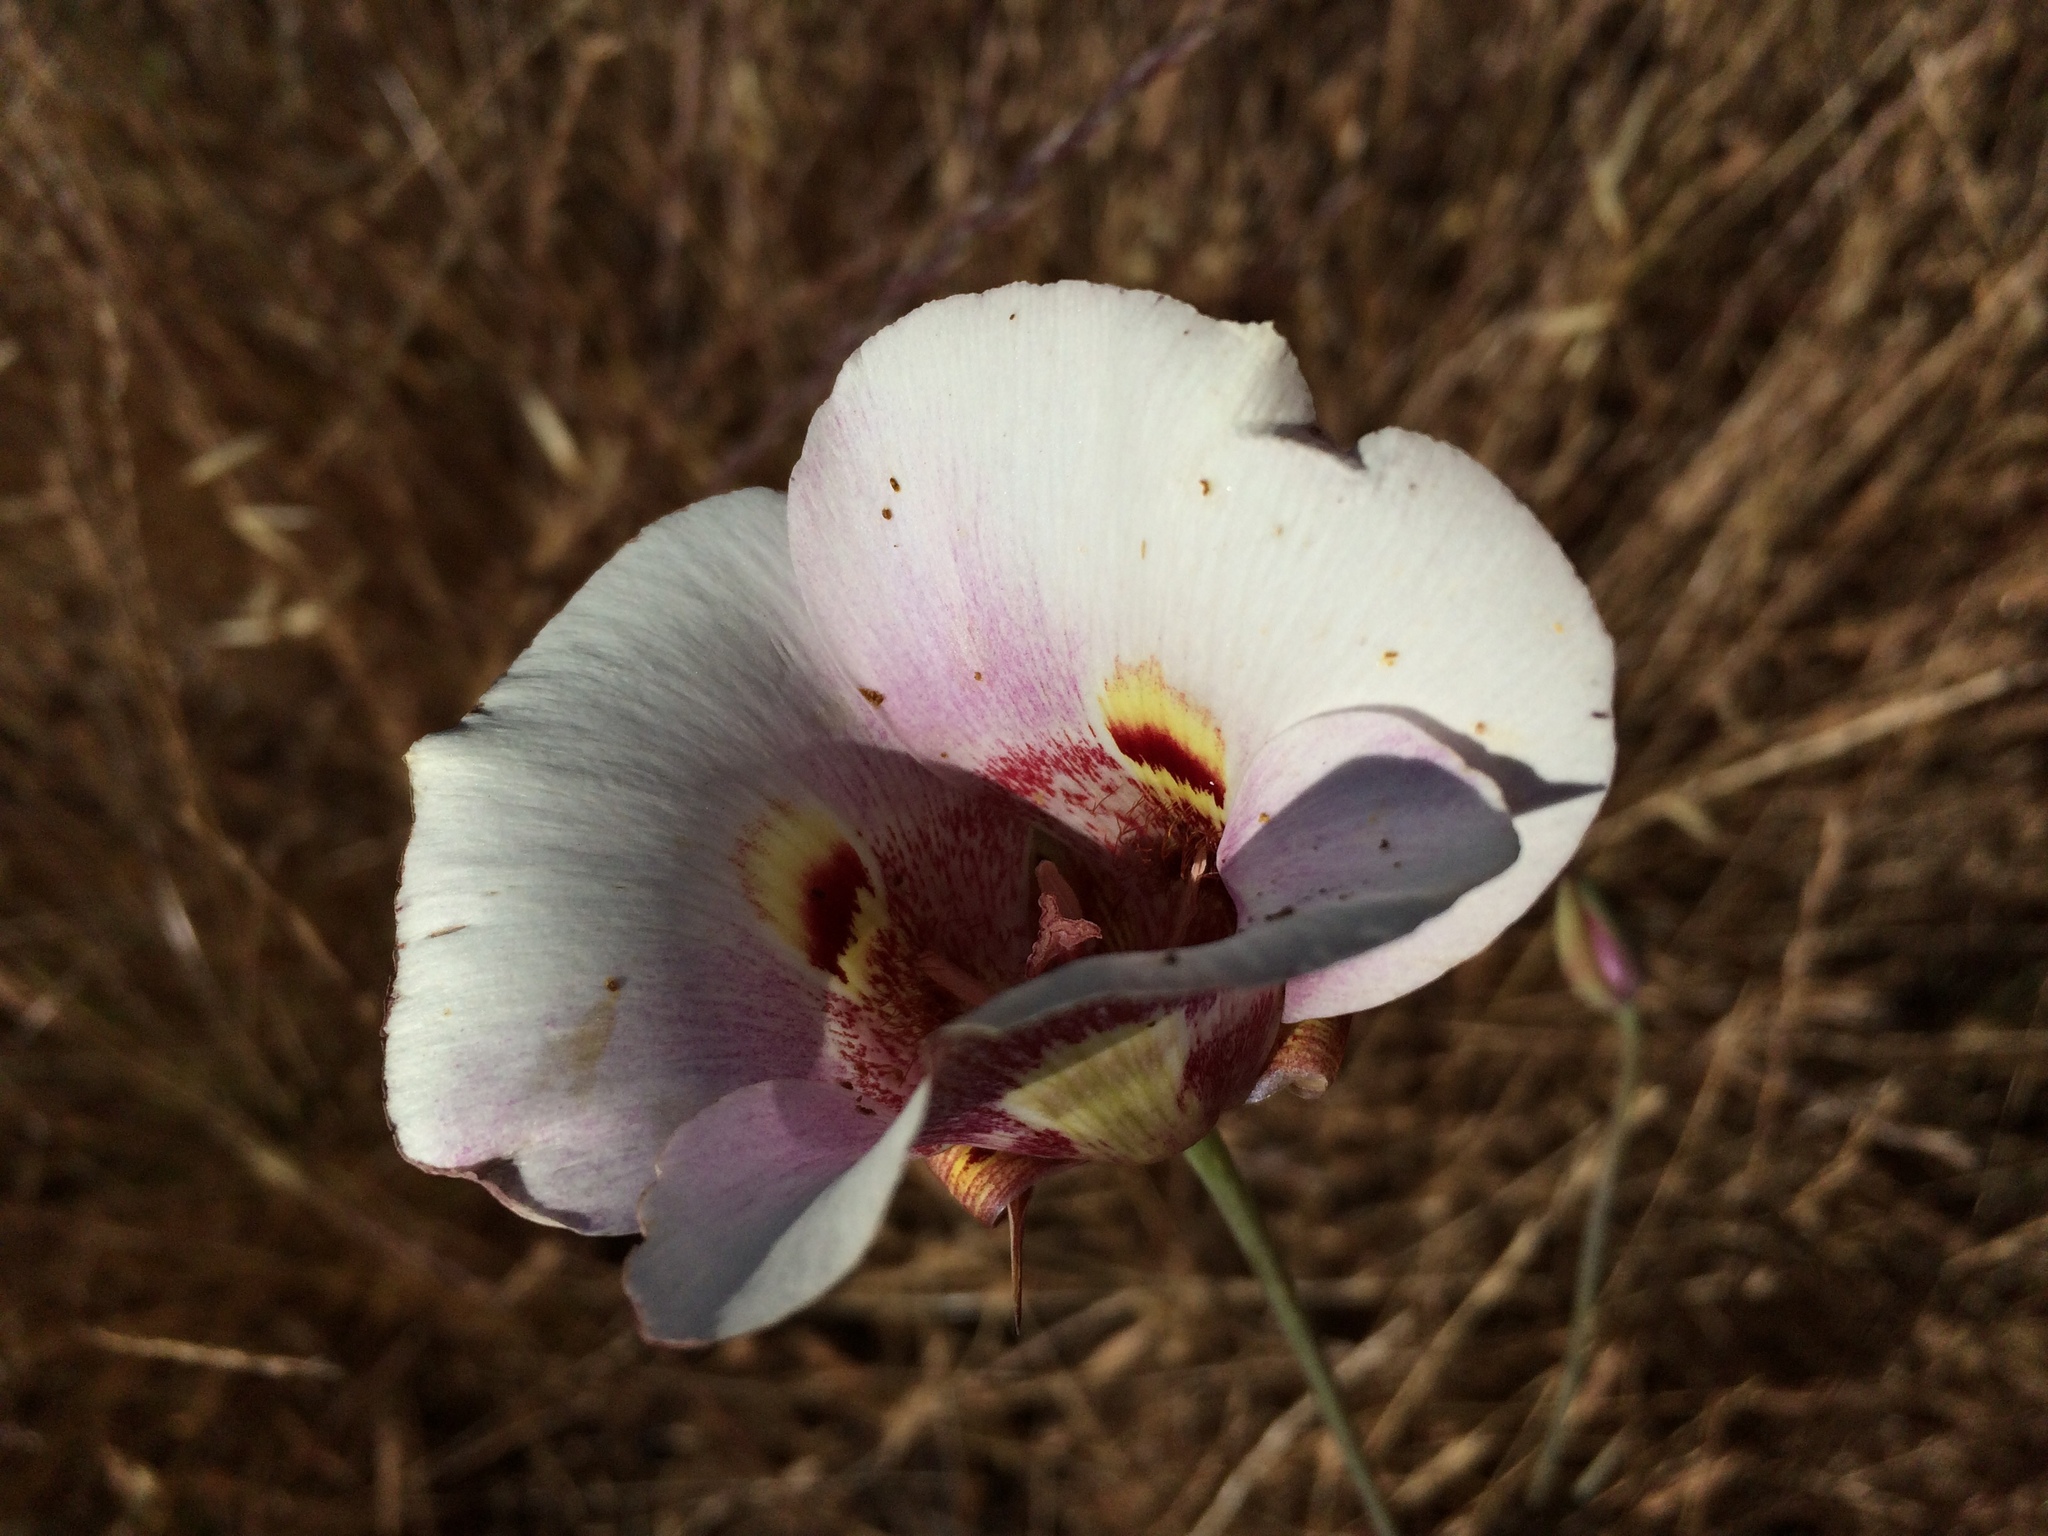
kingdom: Plantae
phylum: Tracheophyta
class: Liliopsida
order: Liliales
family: Liliaceae
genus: Calochortus
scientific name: Calochortus argillosus
